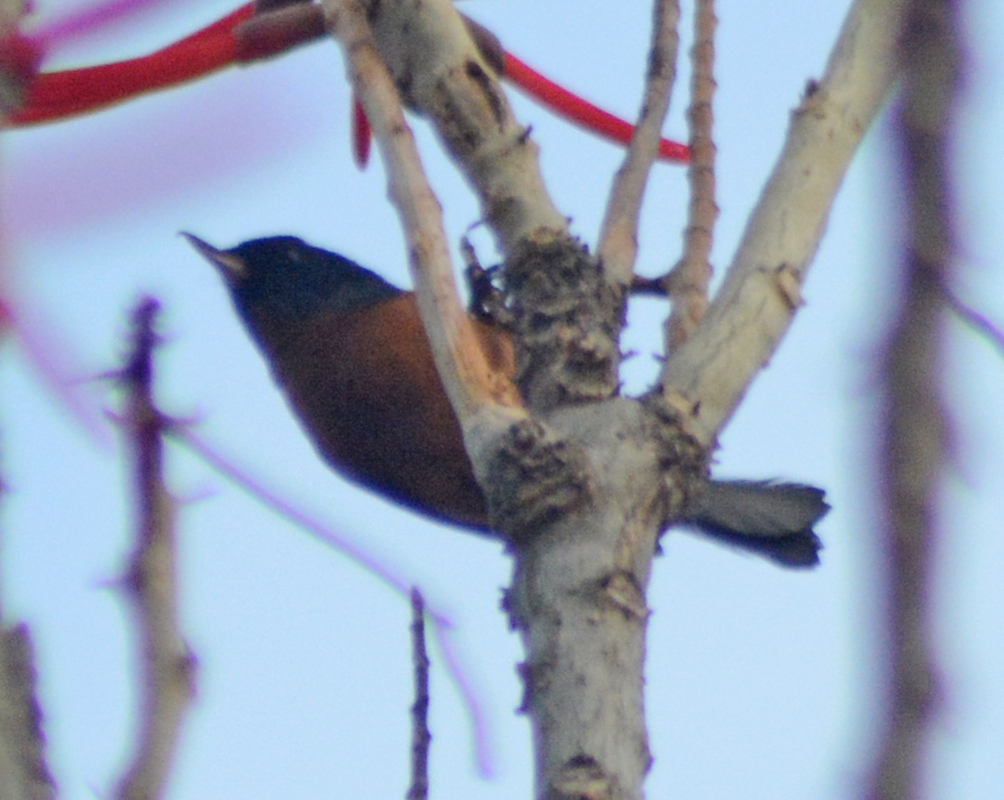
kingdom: Animalia
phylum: Chordata
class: Aves
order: Passeriformes
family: Thraupidae
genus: Diglossa
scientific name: Diglossa baritula
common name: Cinnamon-bellied flowerpiercer
